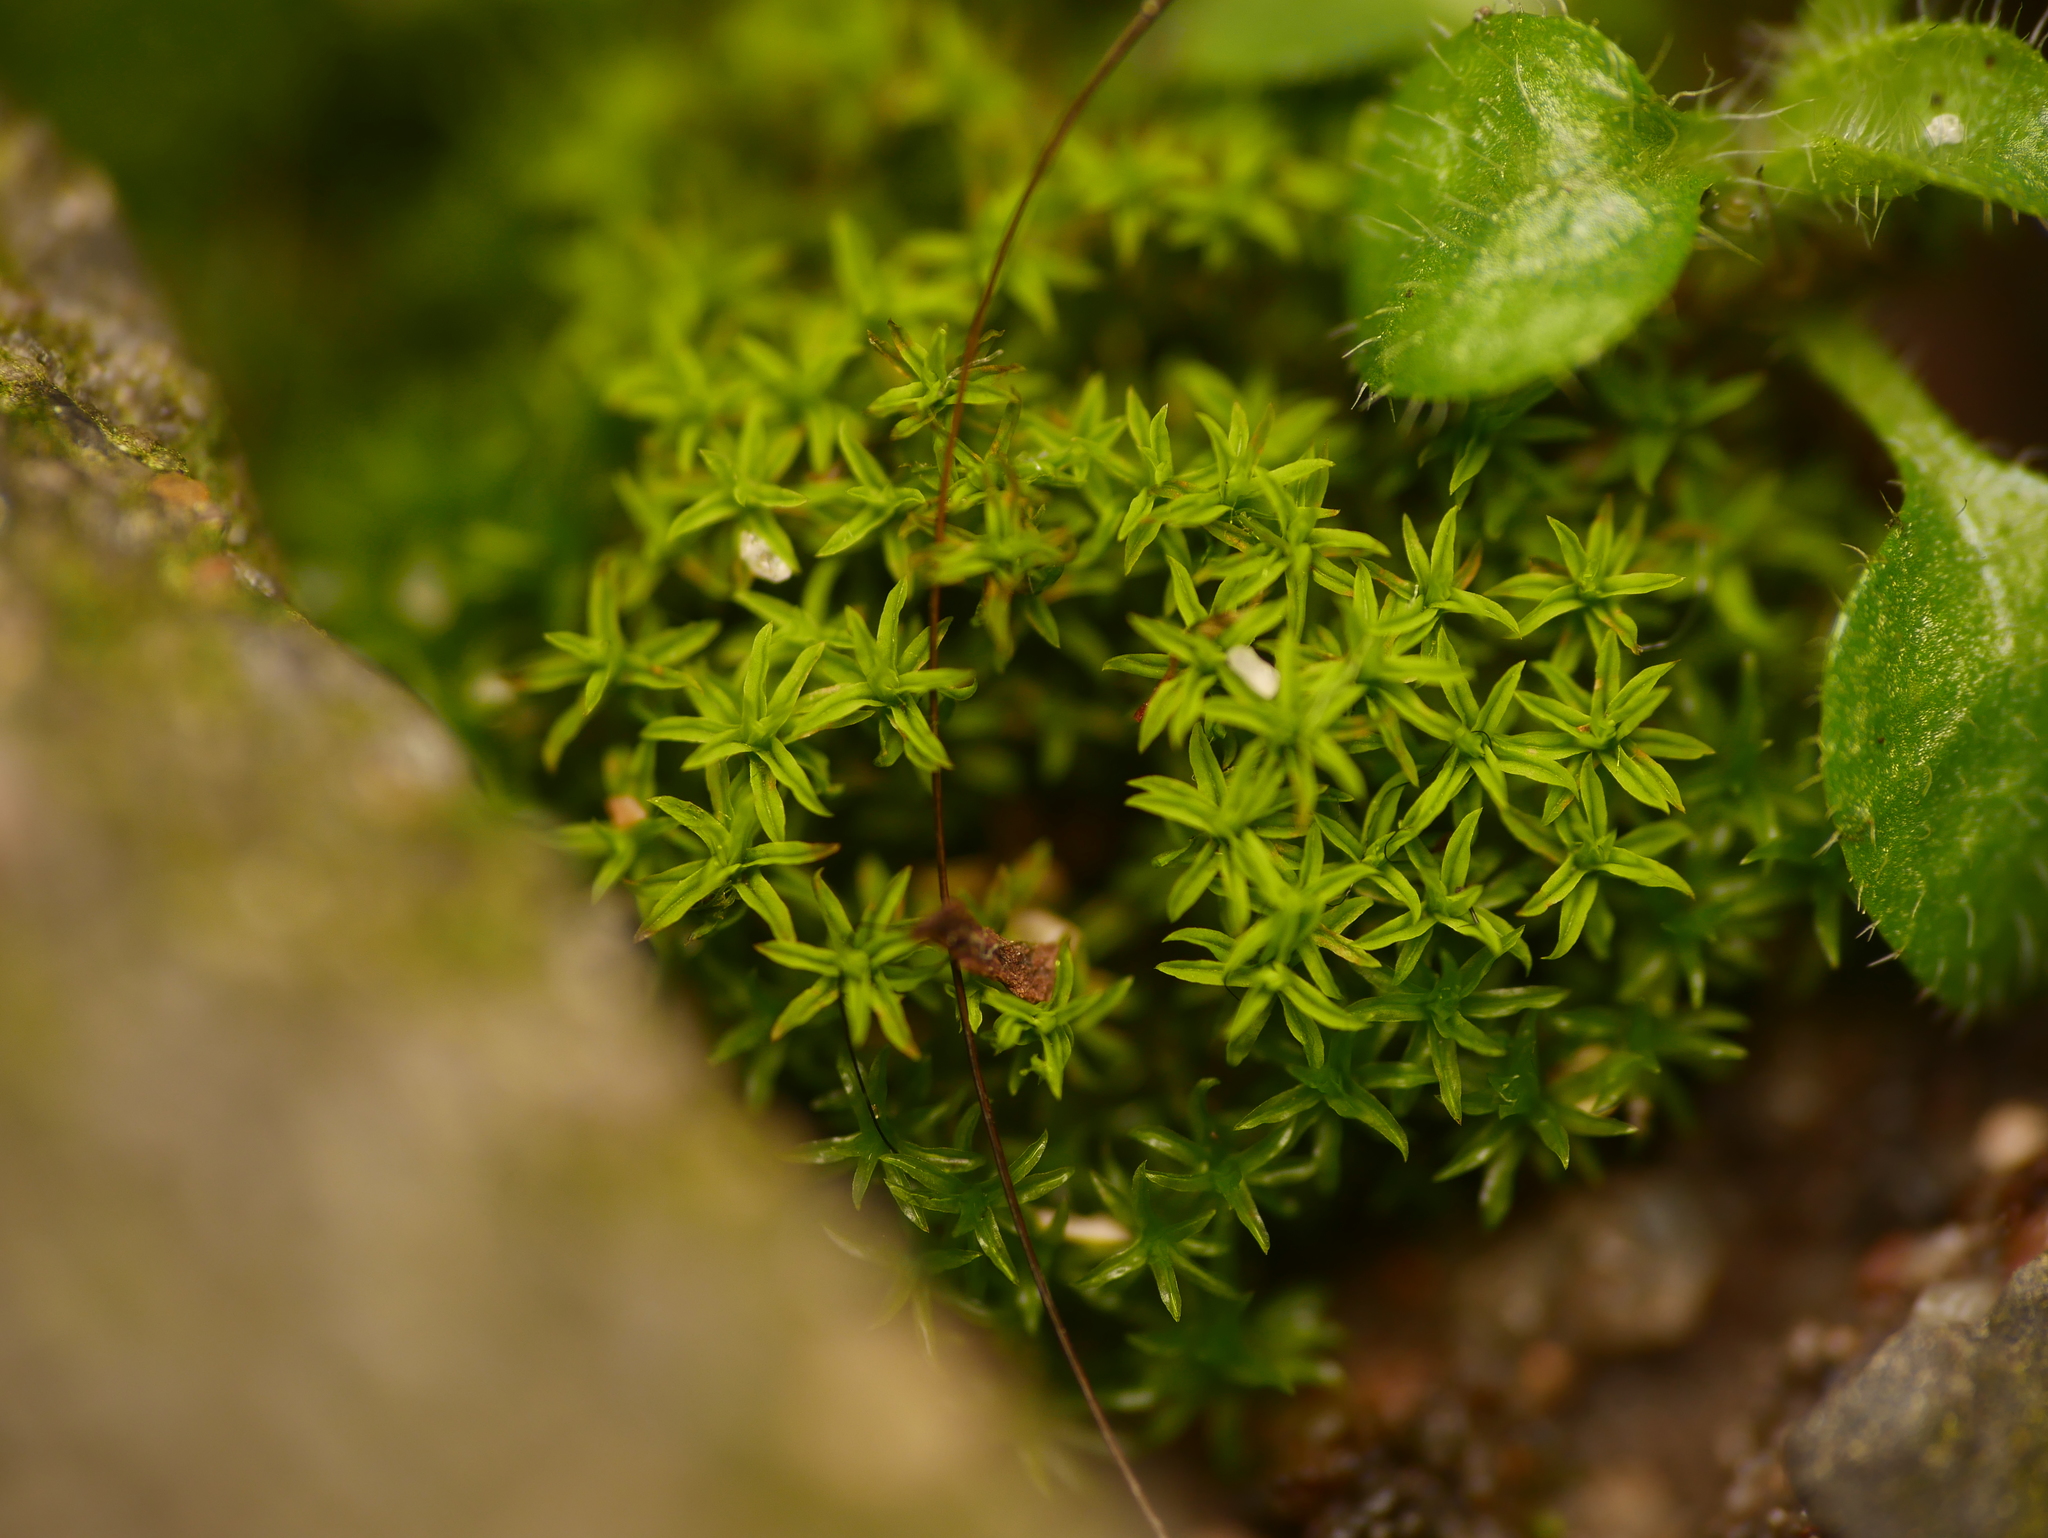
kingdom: Plantae
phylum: Bryophyta
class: Bryopsida
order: Pottiales
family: Pottiaceae
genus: Barbula
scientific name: Barbula unguiculata
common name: Prickly beard moss
